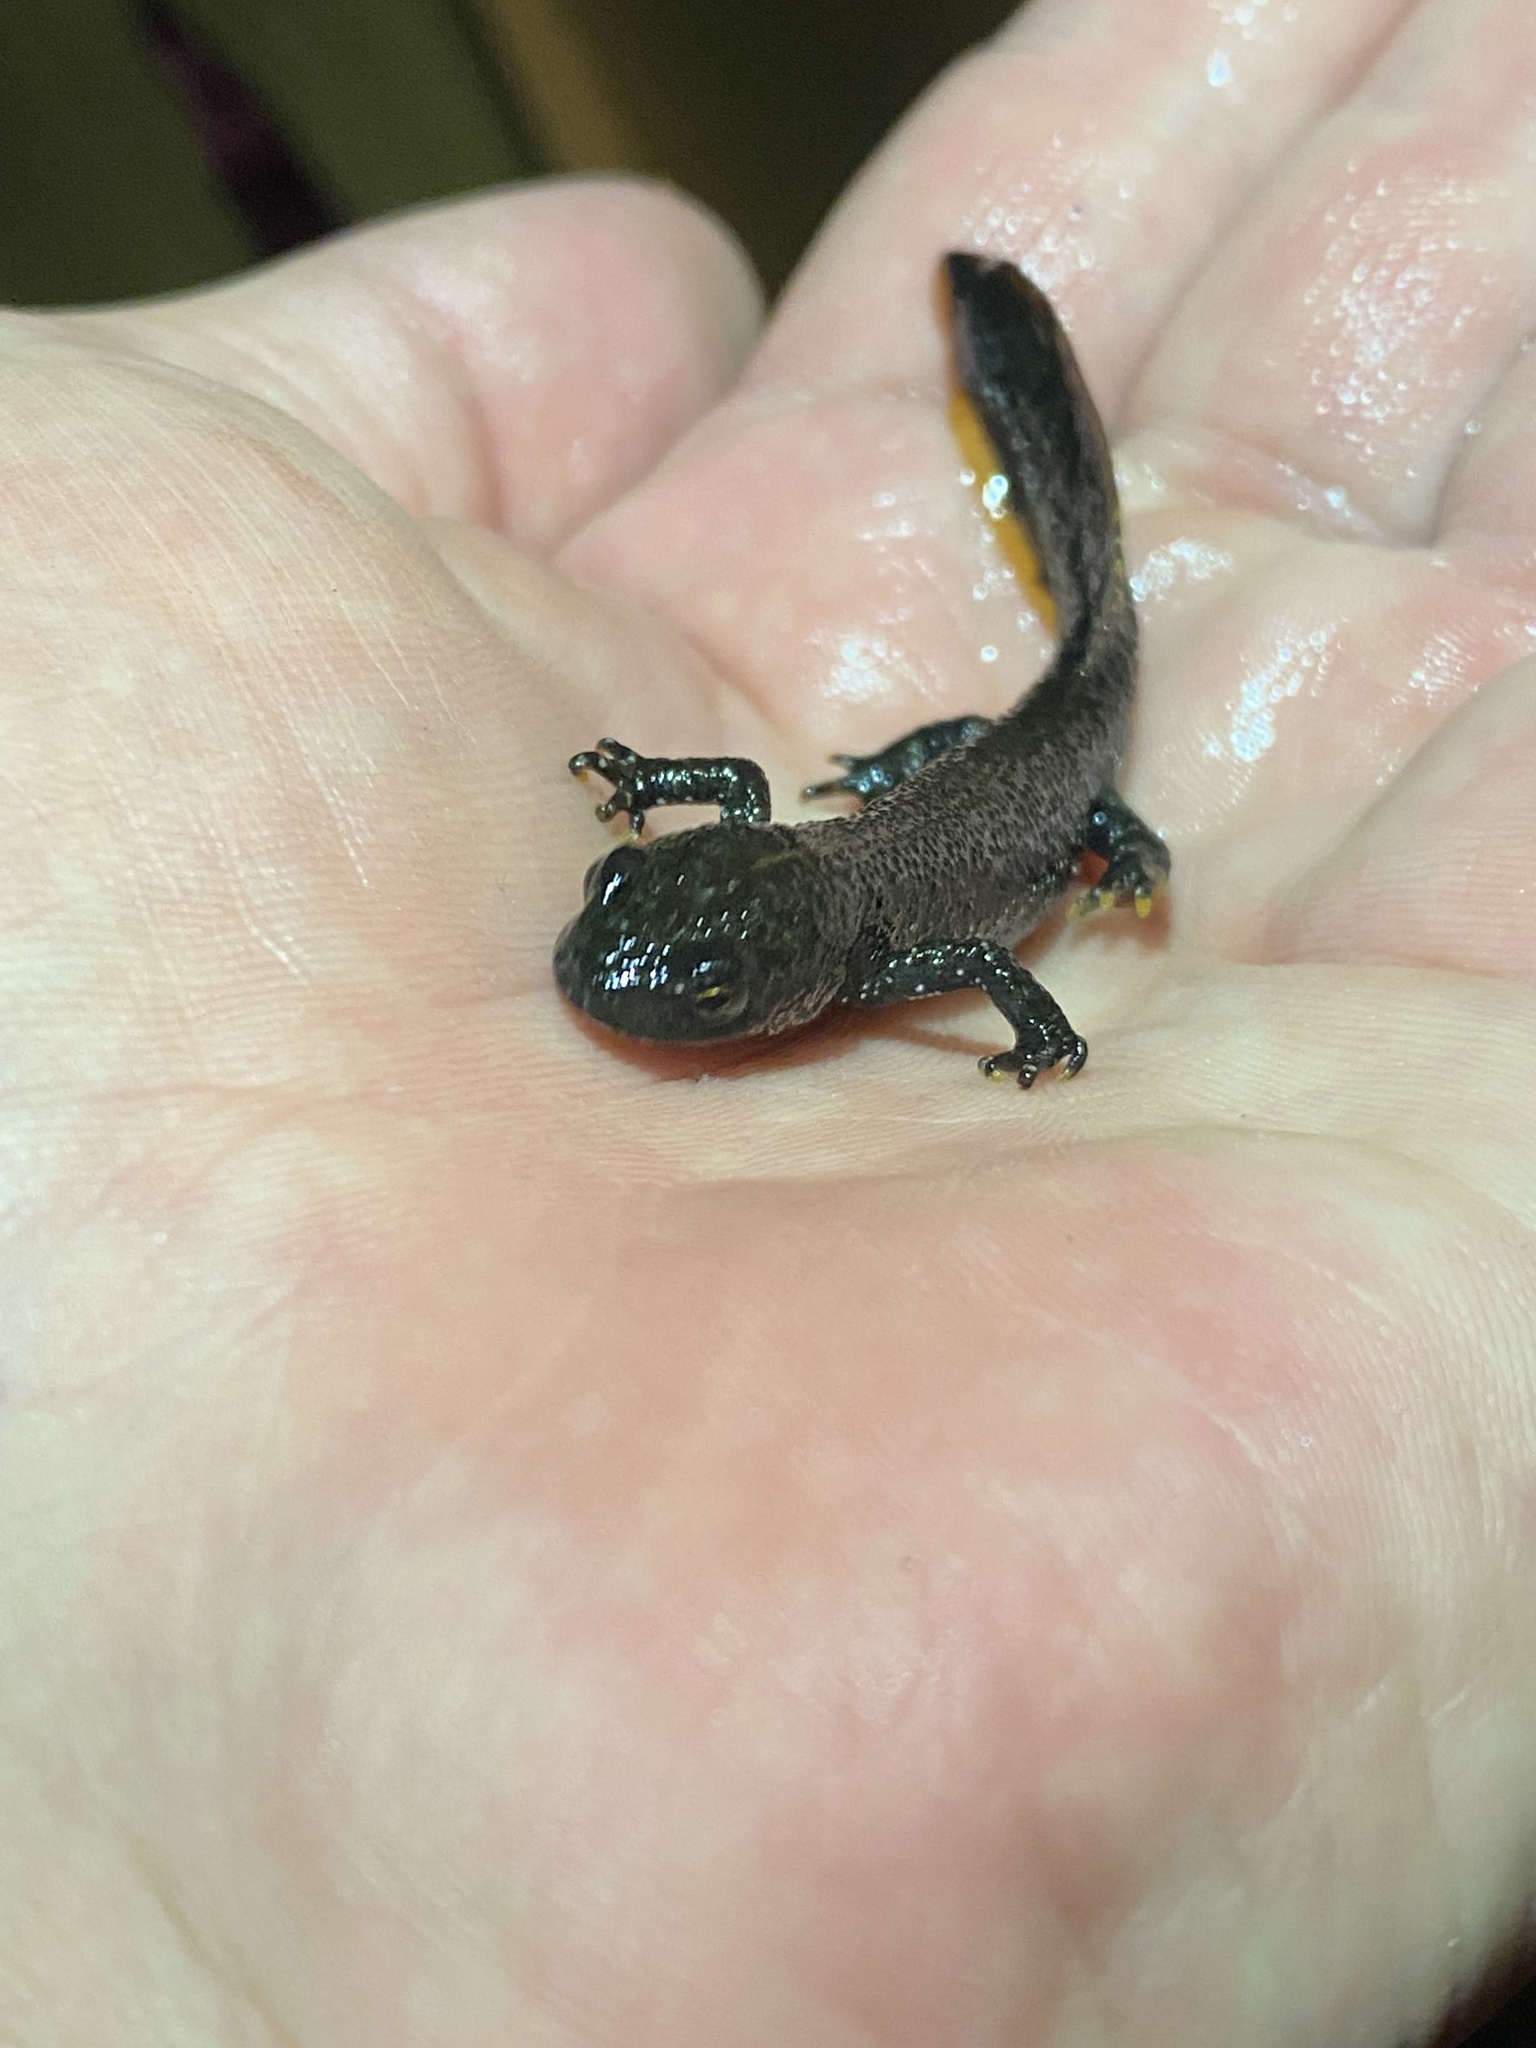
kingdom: Animalia
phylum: Chordata
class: Amphibia
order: Caudata
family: Salamandridae
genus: Triturus
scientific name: Triturus cristatus
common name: Crested newt
